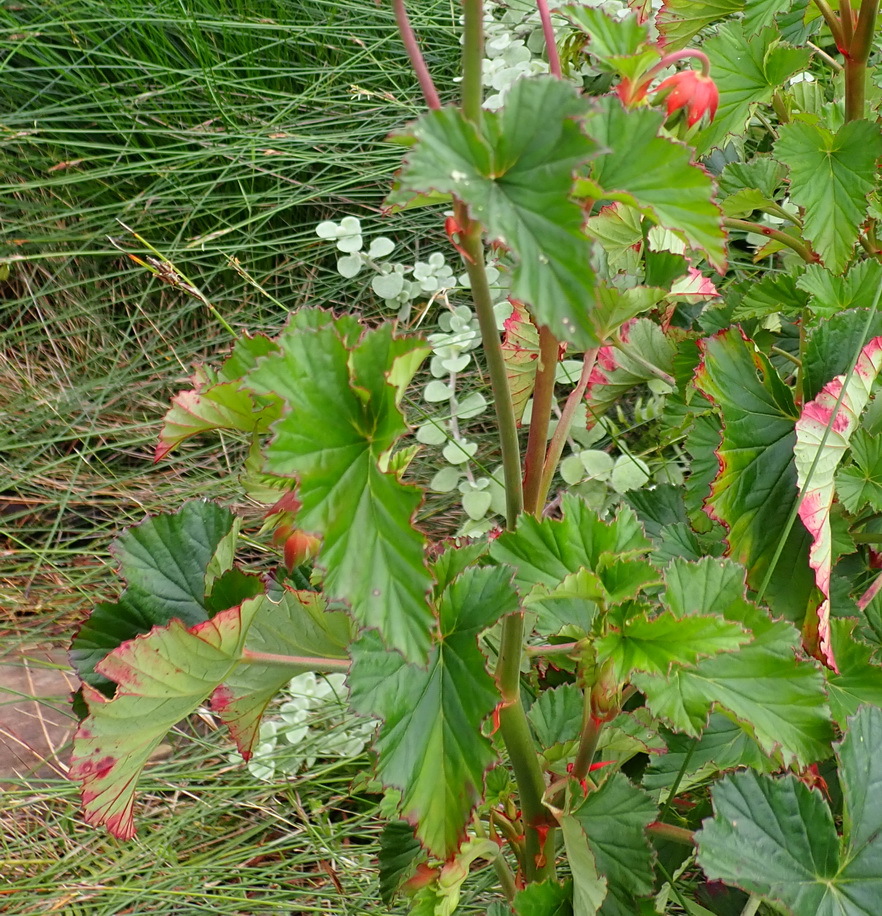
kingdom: Plantae
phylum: Tracheophyta
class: Magnoliopsida
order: Geraniales
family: Geraniaceae
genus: Pelargonium
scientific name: Pelargonium cordifolium
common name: Heart-leaf pelargonium
